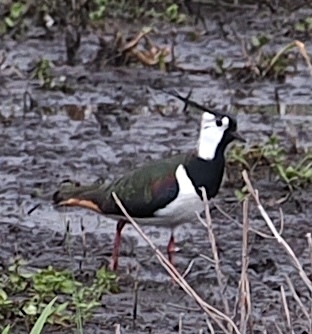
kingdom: Animalia
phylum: Chordata
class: Aves
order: Charadriiformes
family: Charadriidae
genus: Vanellus
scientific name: Vanellus vanellus
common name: Northern lapwing
